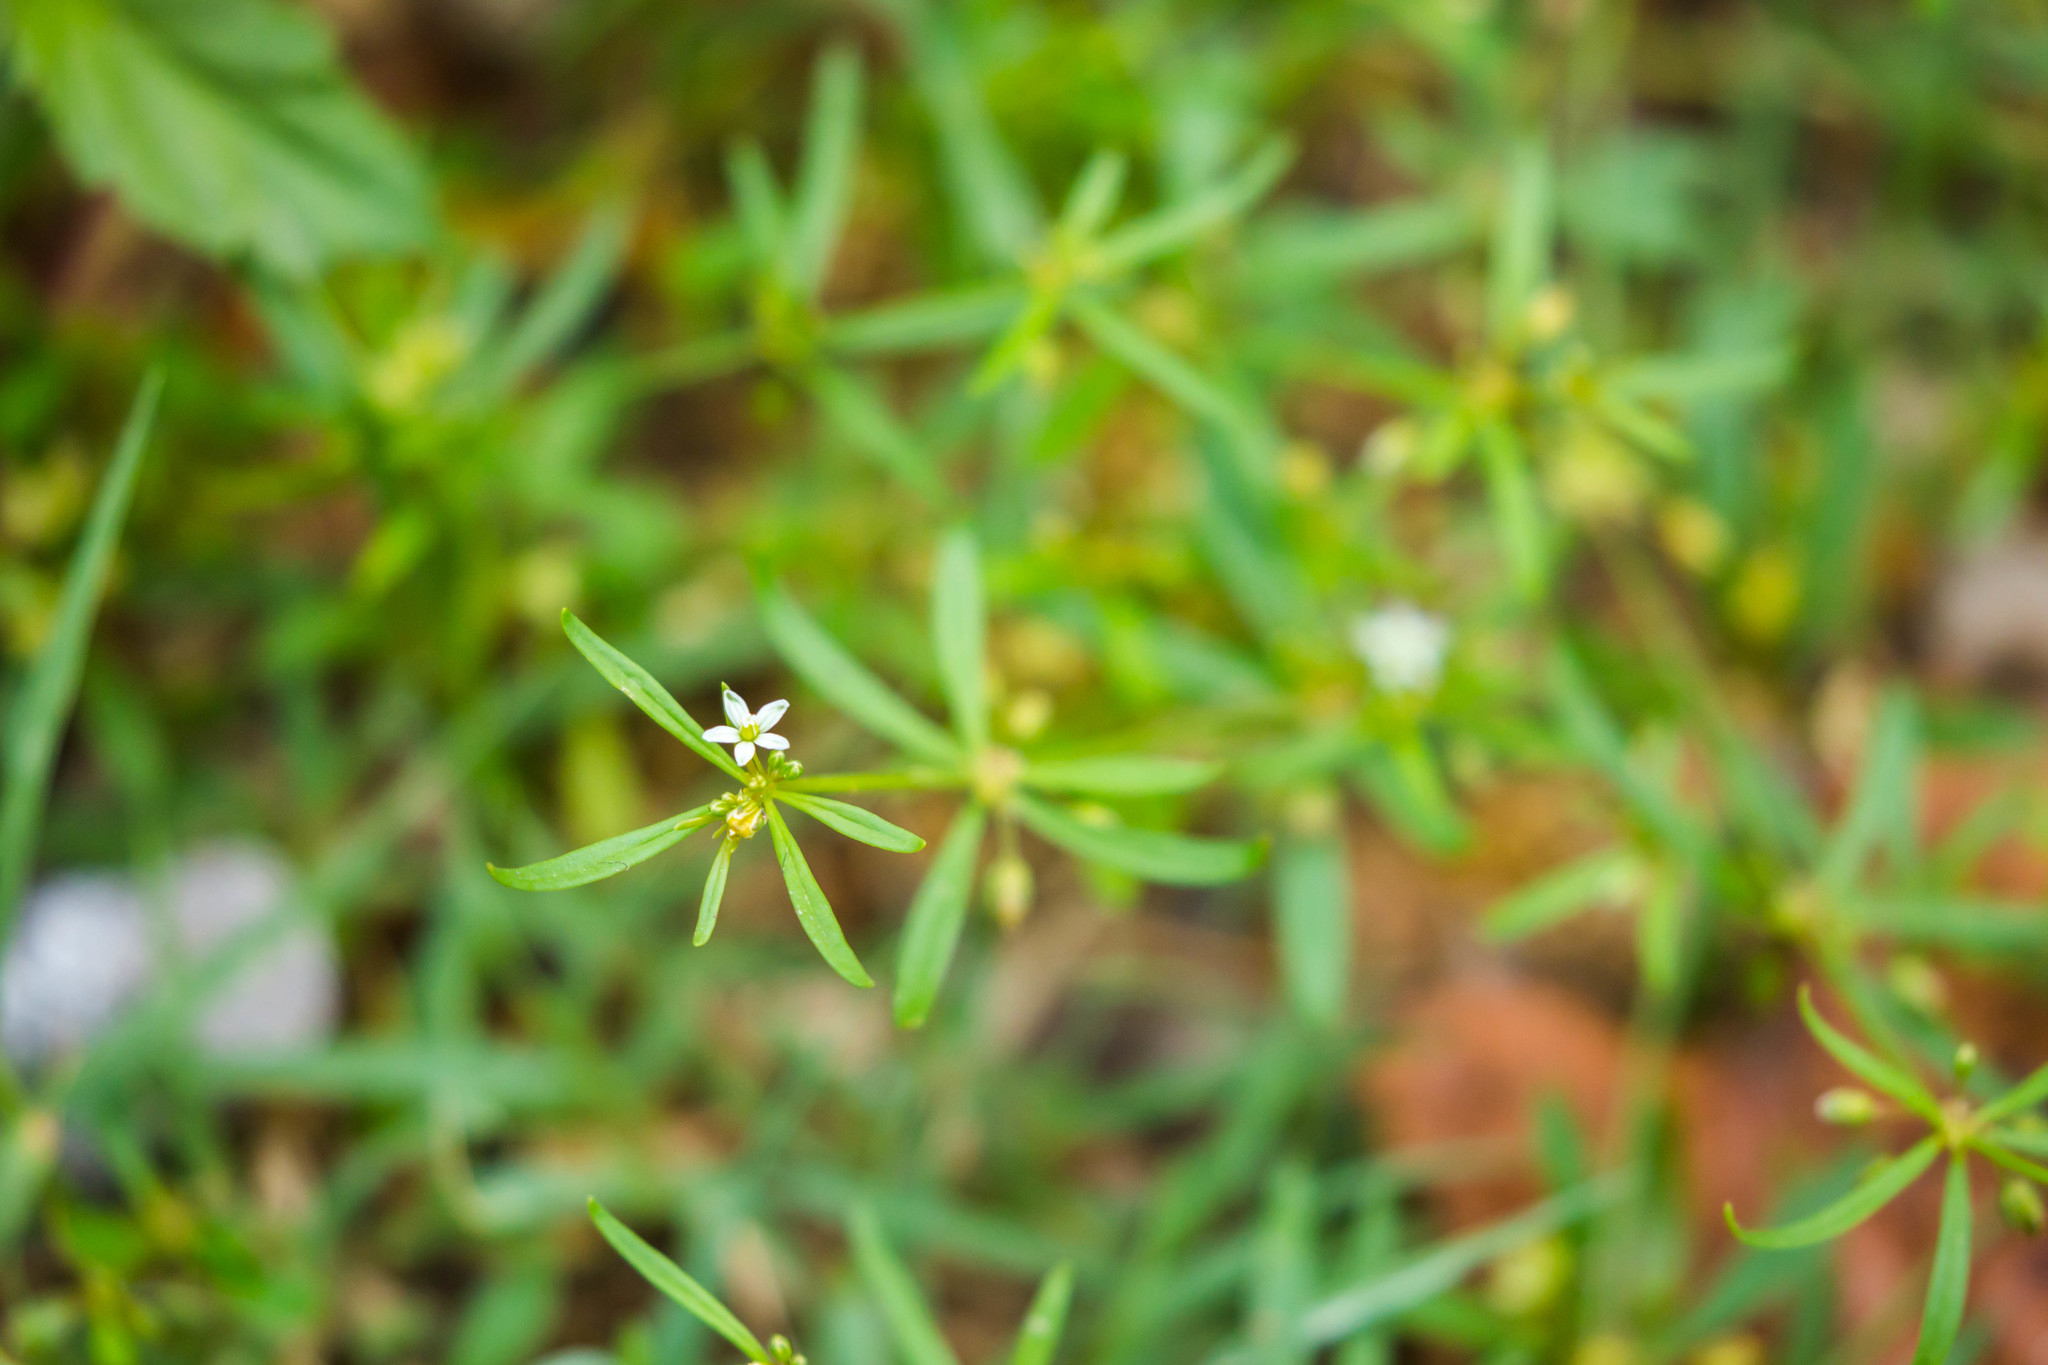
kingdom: Plantae
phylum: Tracheophyta
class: Magnoliopsida
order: Caryophyllales
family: Molluginaceae
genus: Mollugo
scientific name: Mollugo verticillata
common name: Green carpetweed
